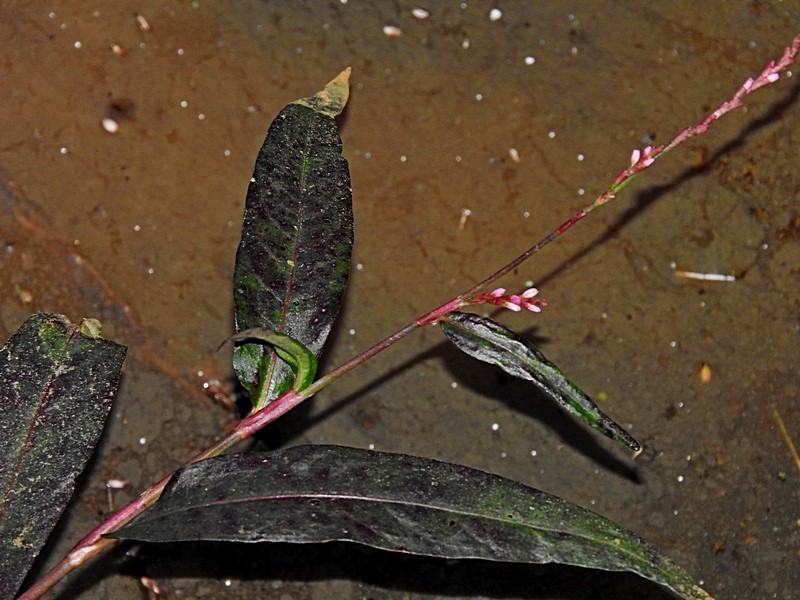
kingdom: Plantae
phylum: Tracheophyta
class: Magnoliopsida
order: Caryophyllales
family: Polygonaceae
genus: Persicaria
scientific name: Persicaria decipiens
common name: Willow-weed
